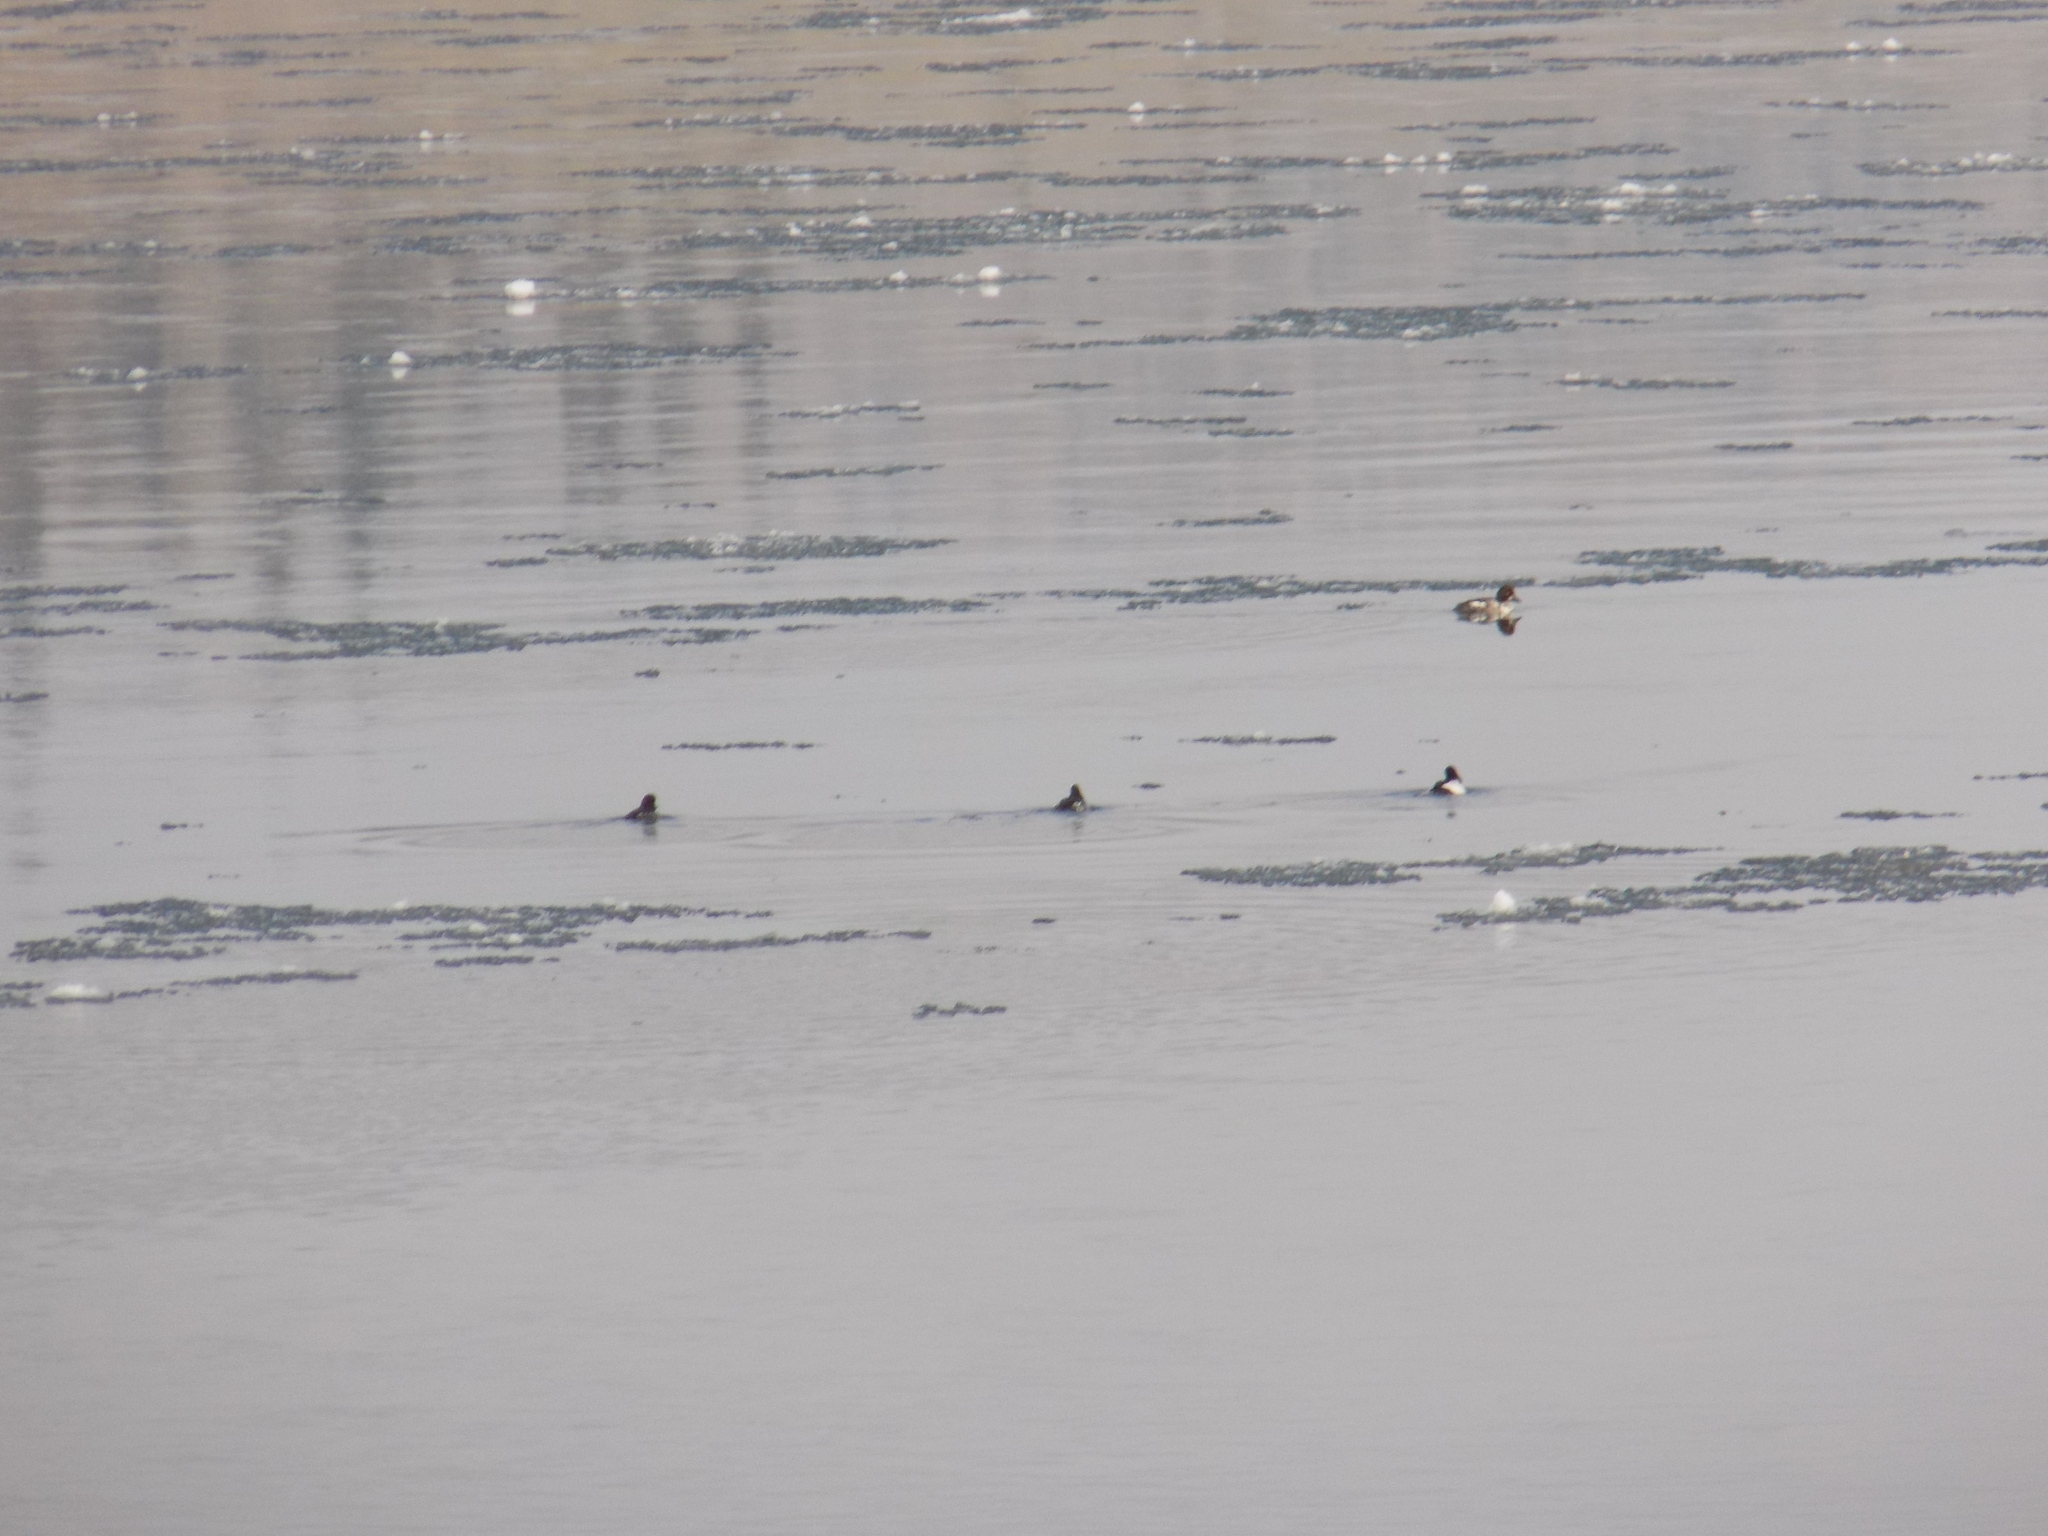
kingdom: Animalia
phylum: Chordata
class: Aves
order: Anseriformes
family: Anatidae
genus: Bucephala
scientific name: Bucephala clangula
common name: Common goldeneye
